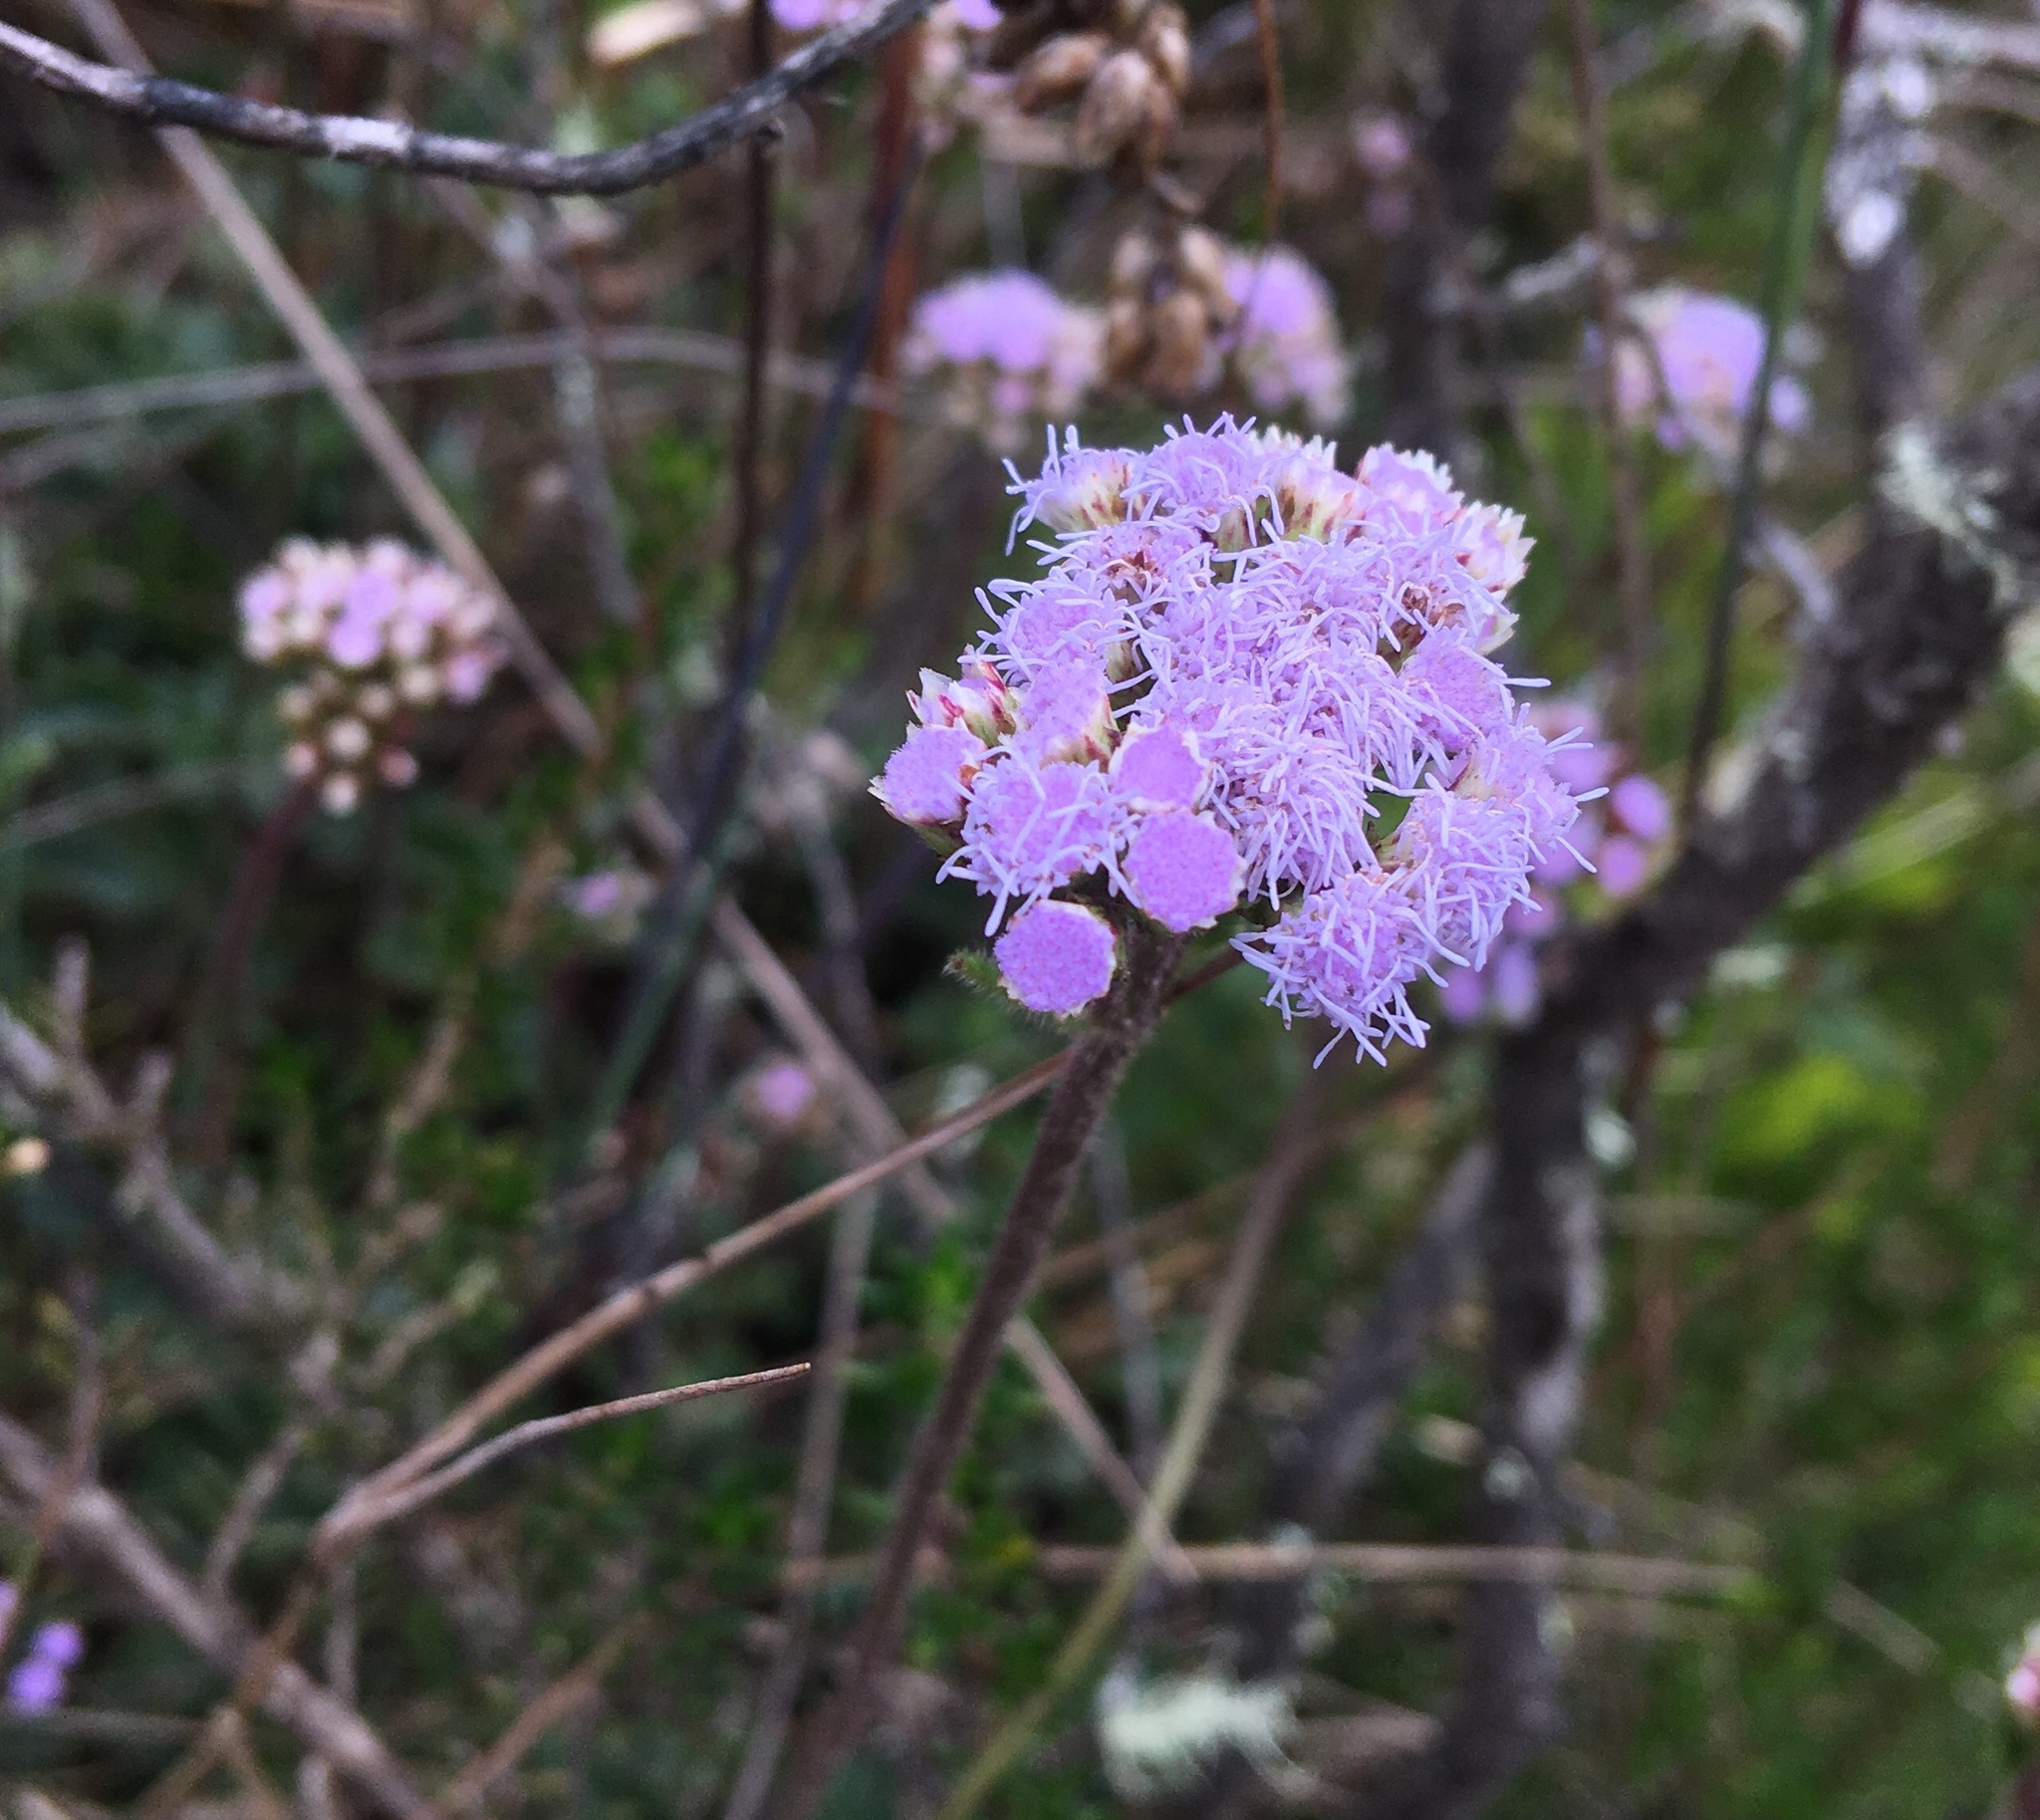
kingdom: Plantae
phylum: Tracheophyta
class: Magnoliopsida
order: Asterales
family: Asteraceae
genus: Lourteigia
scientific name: Lourteigia microphylla
